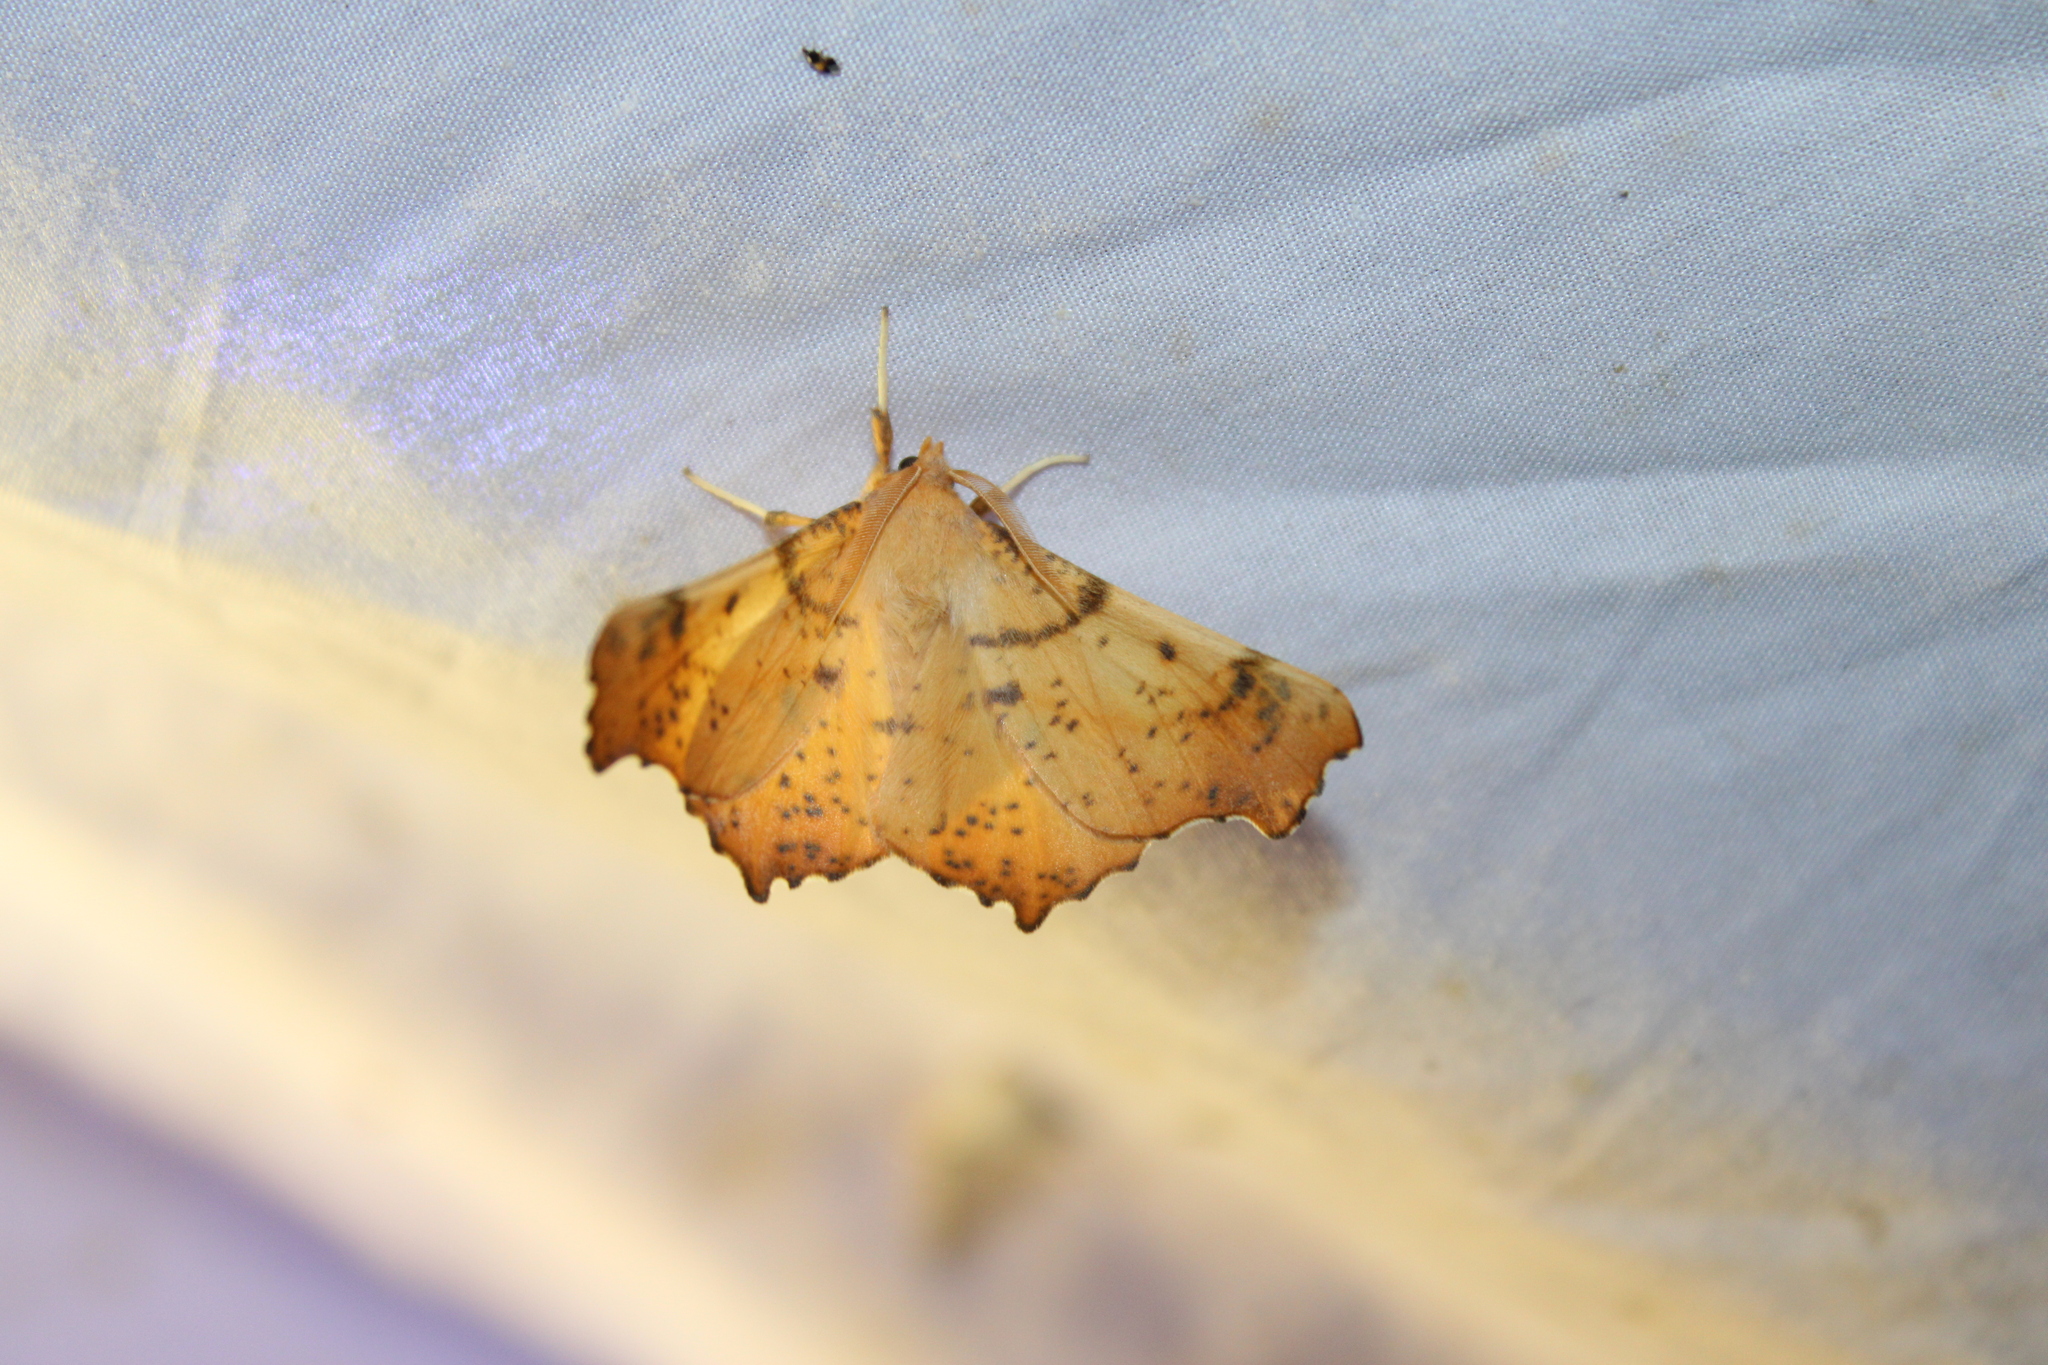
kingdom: Animalia
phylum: Arthropoda
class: Insecta
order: Lepidoptera
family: Geometridae
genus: Ennomos
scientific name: Ennomos magnaria
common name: Maple spanworm
